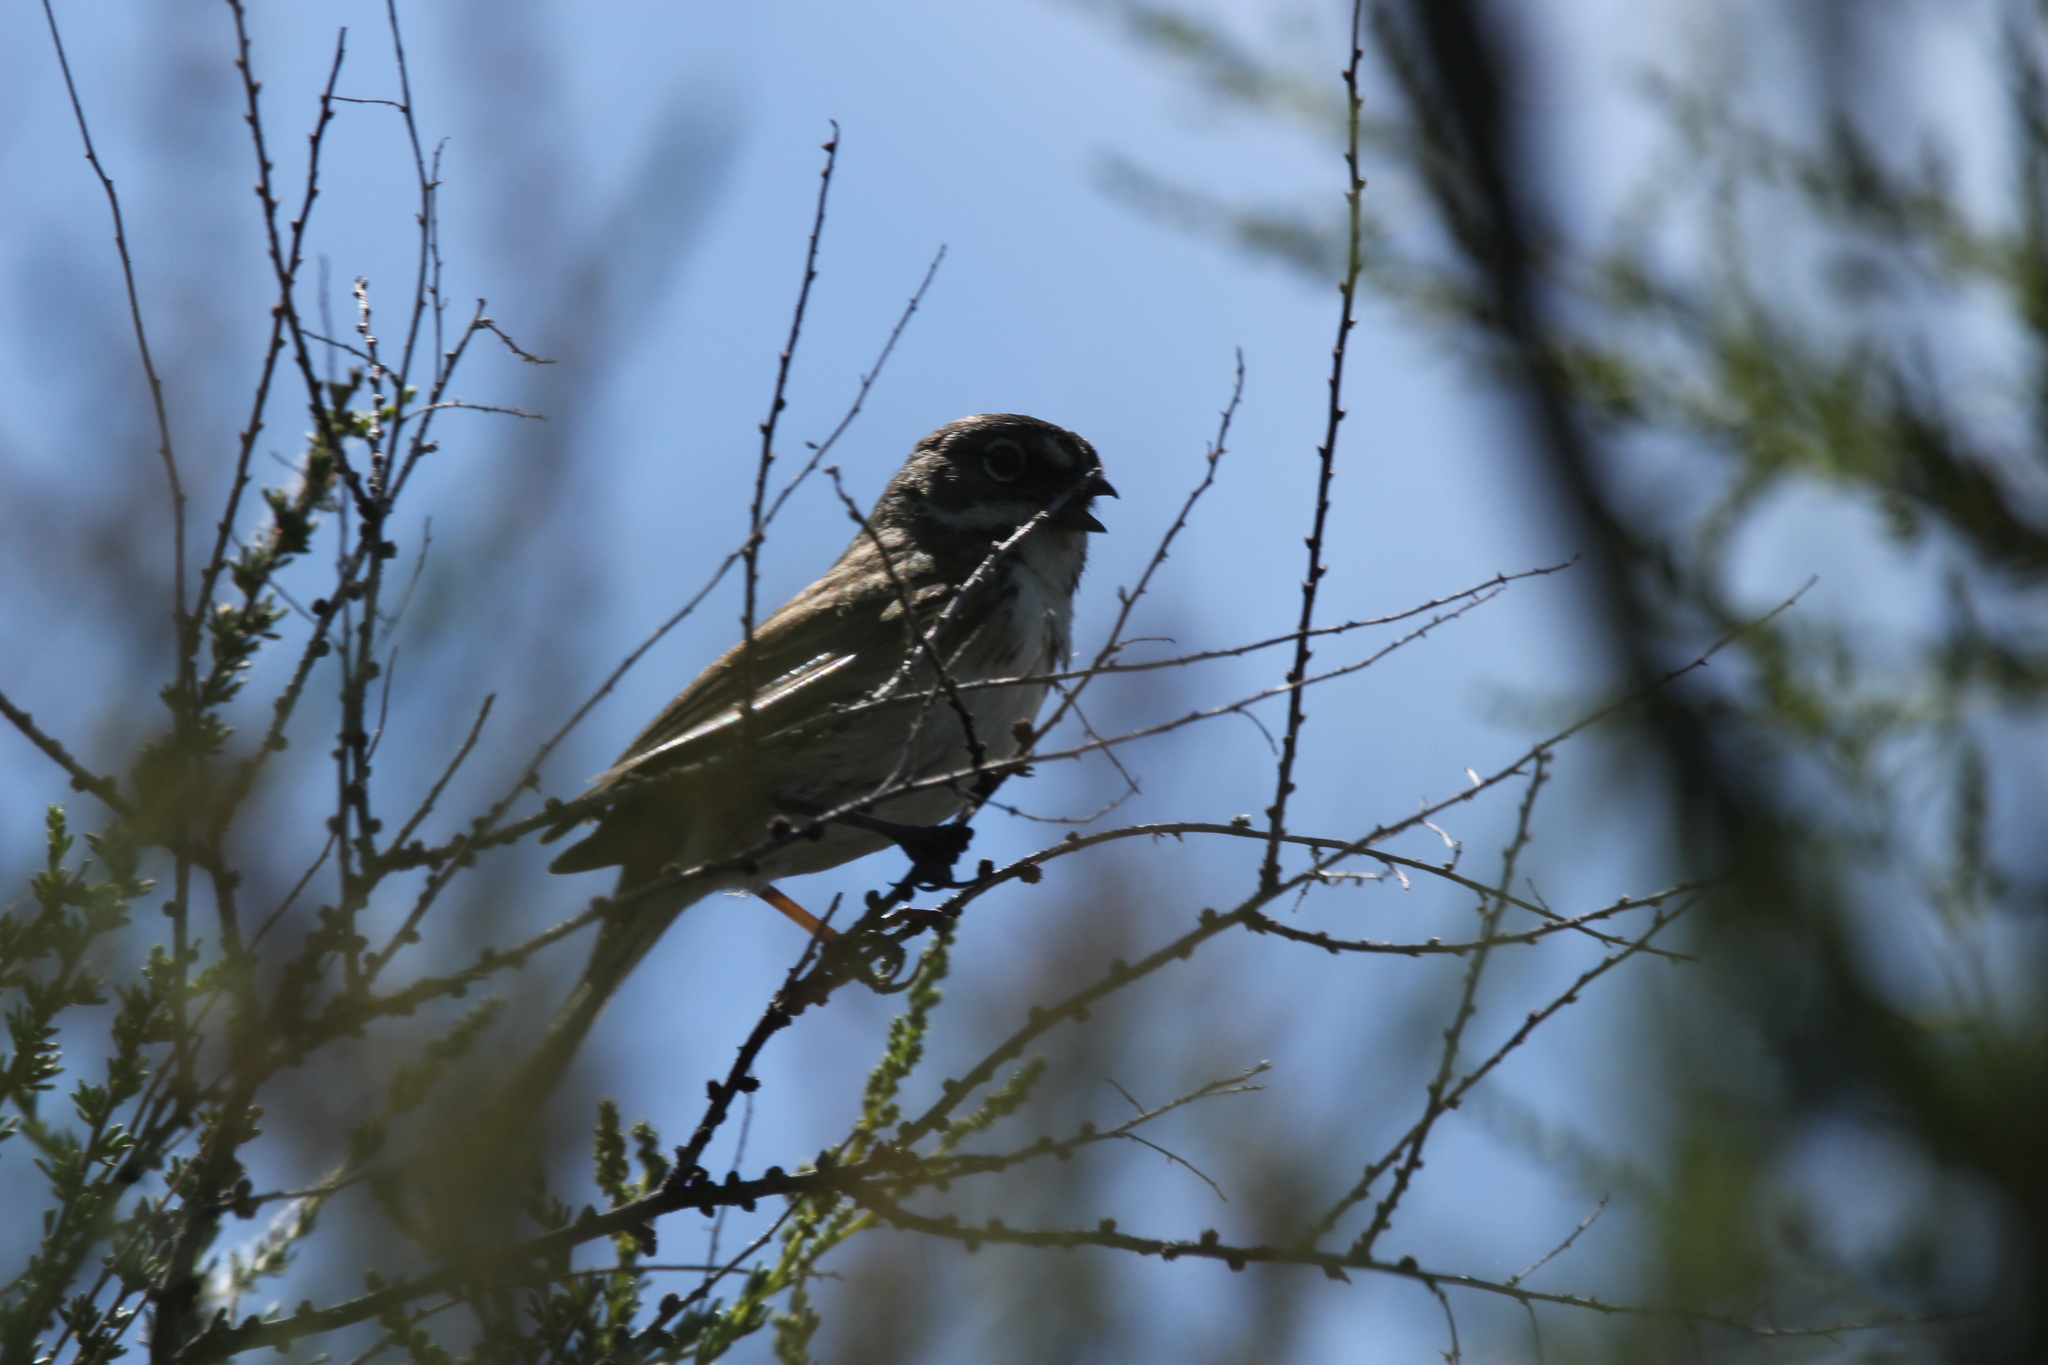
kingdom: Animalia
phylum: Chordata
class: Aves
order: Passeriformes
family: Passerellidae
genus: Artemisiospiza
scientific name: Artemisiospiza belli
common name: Bell's sparrow
